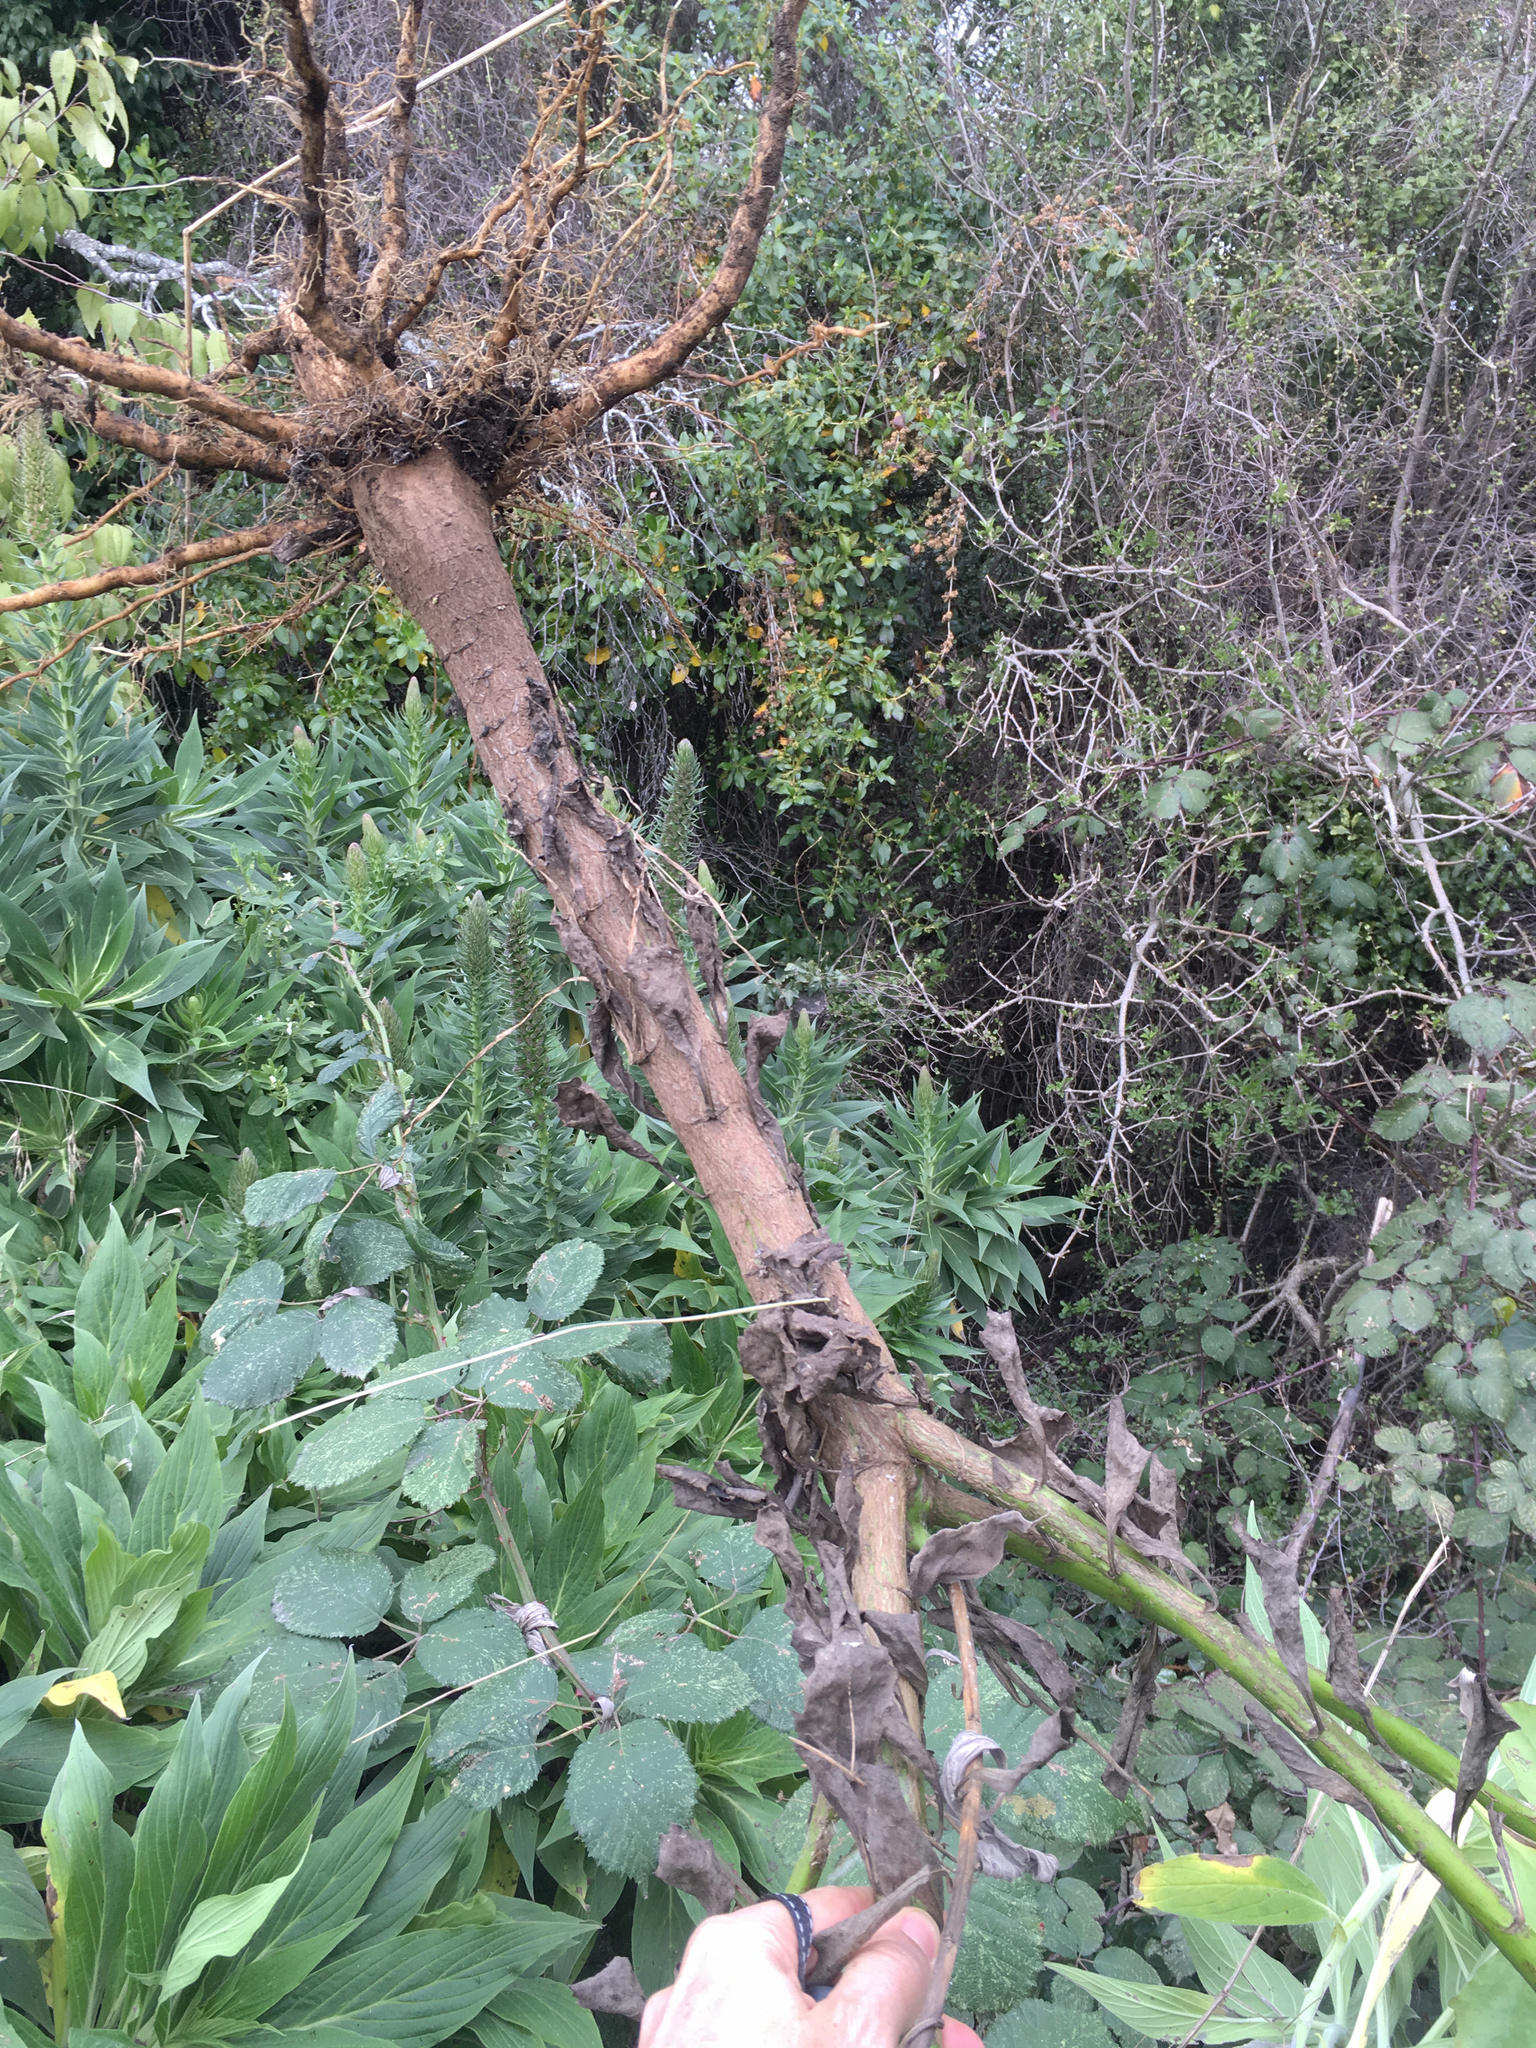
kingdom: Plantae
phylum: Tracheophyta
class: Magnoliopsida
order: Asterales
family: Asteraceae
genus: Osteospermum
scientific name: Osteospermum moniliferum
